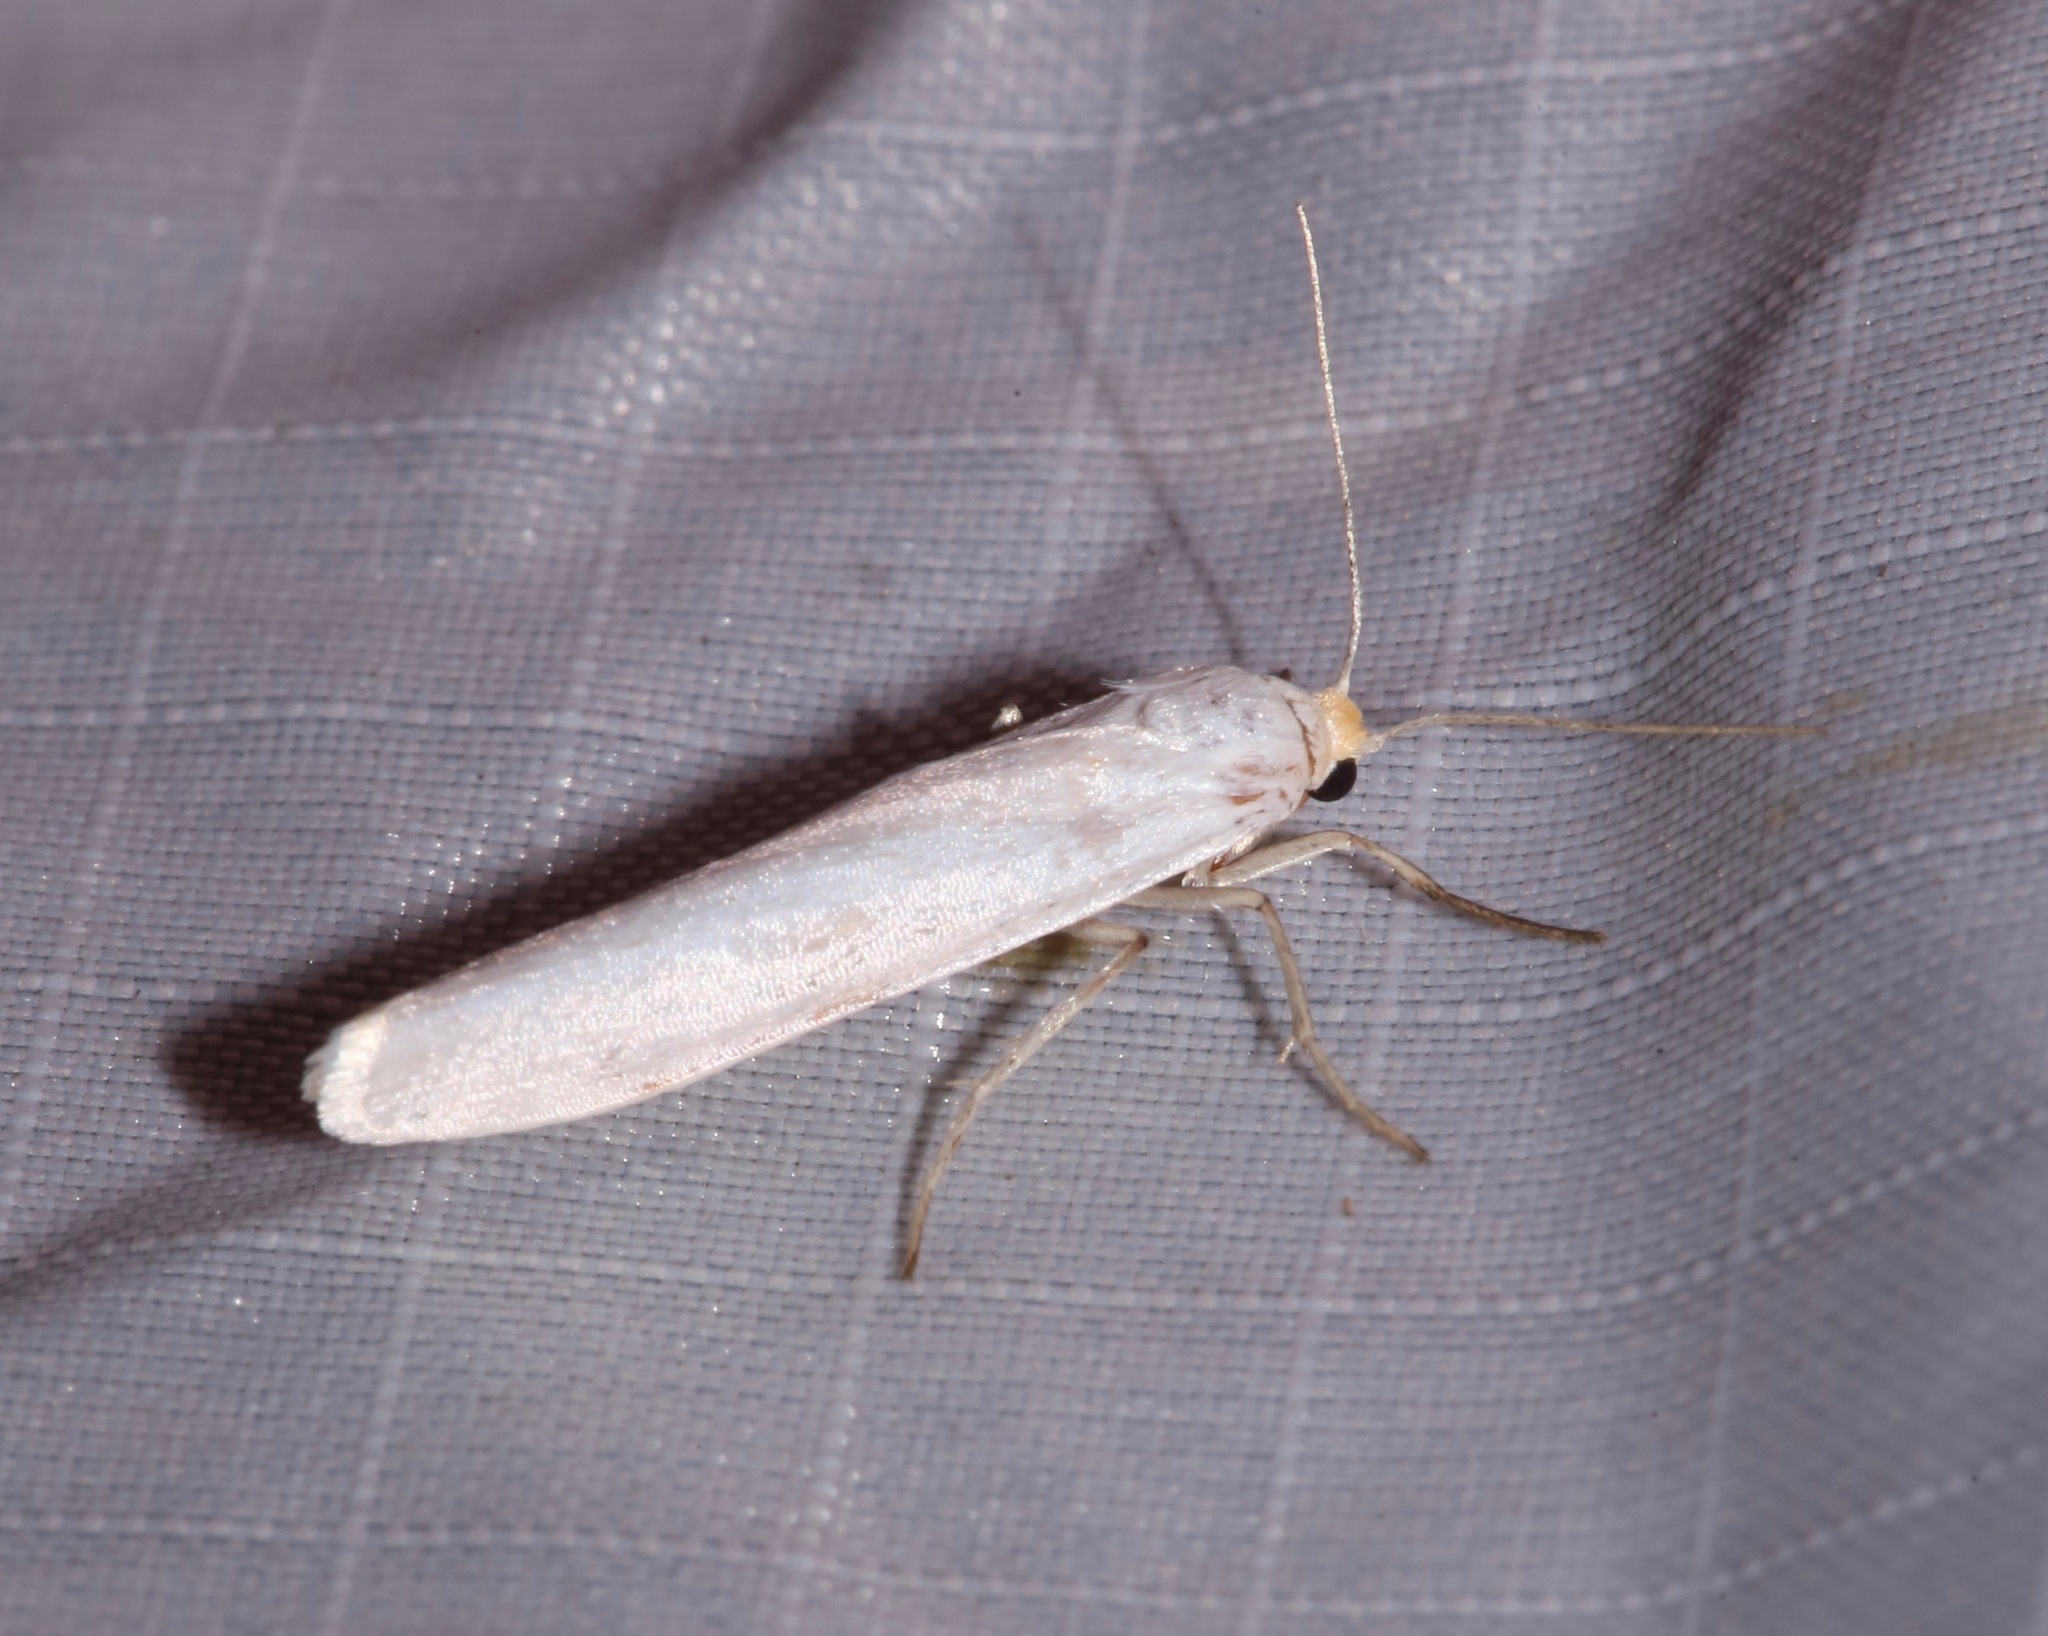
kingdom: Animalia
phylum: Arthropoda
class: Insecta
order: Lepidoptera
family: Erebidae
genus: Crambidia
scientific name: Crambidia cephalica
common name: Yellow-headed lichen moth
